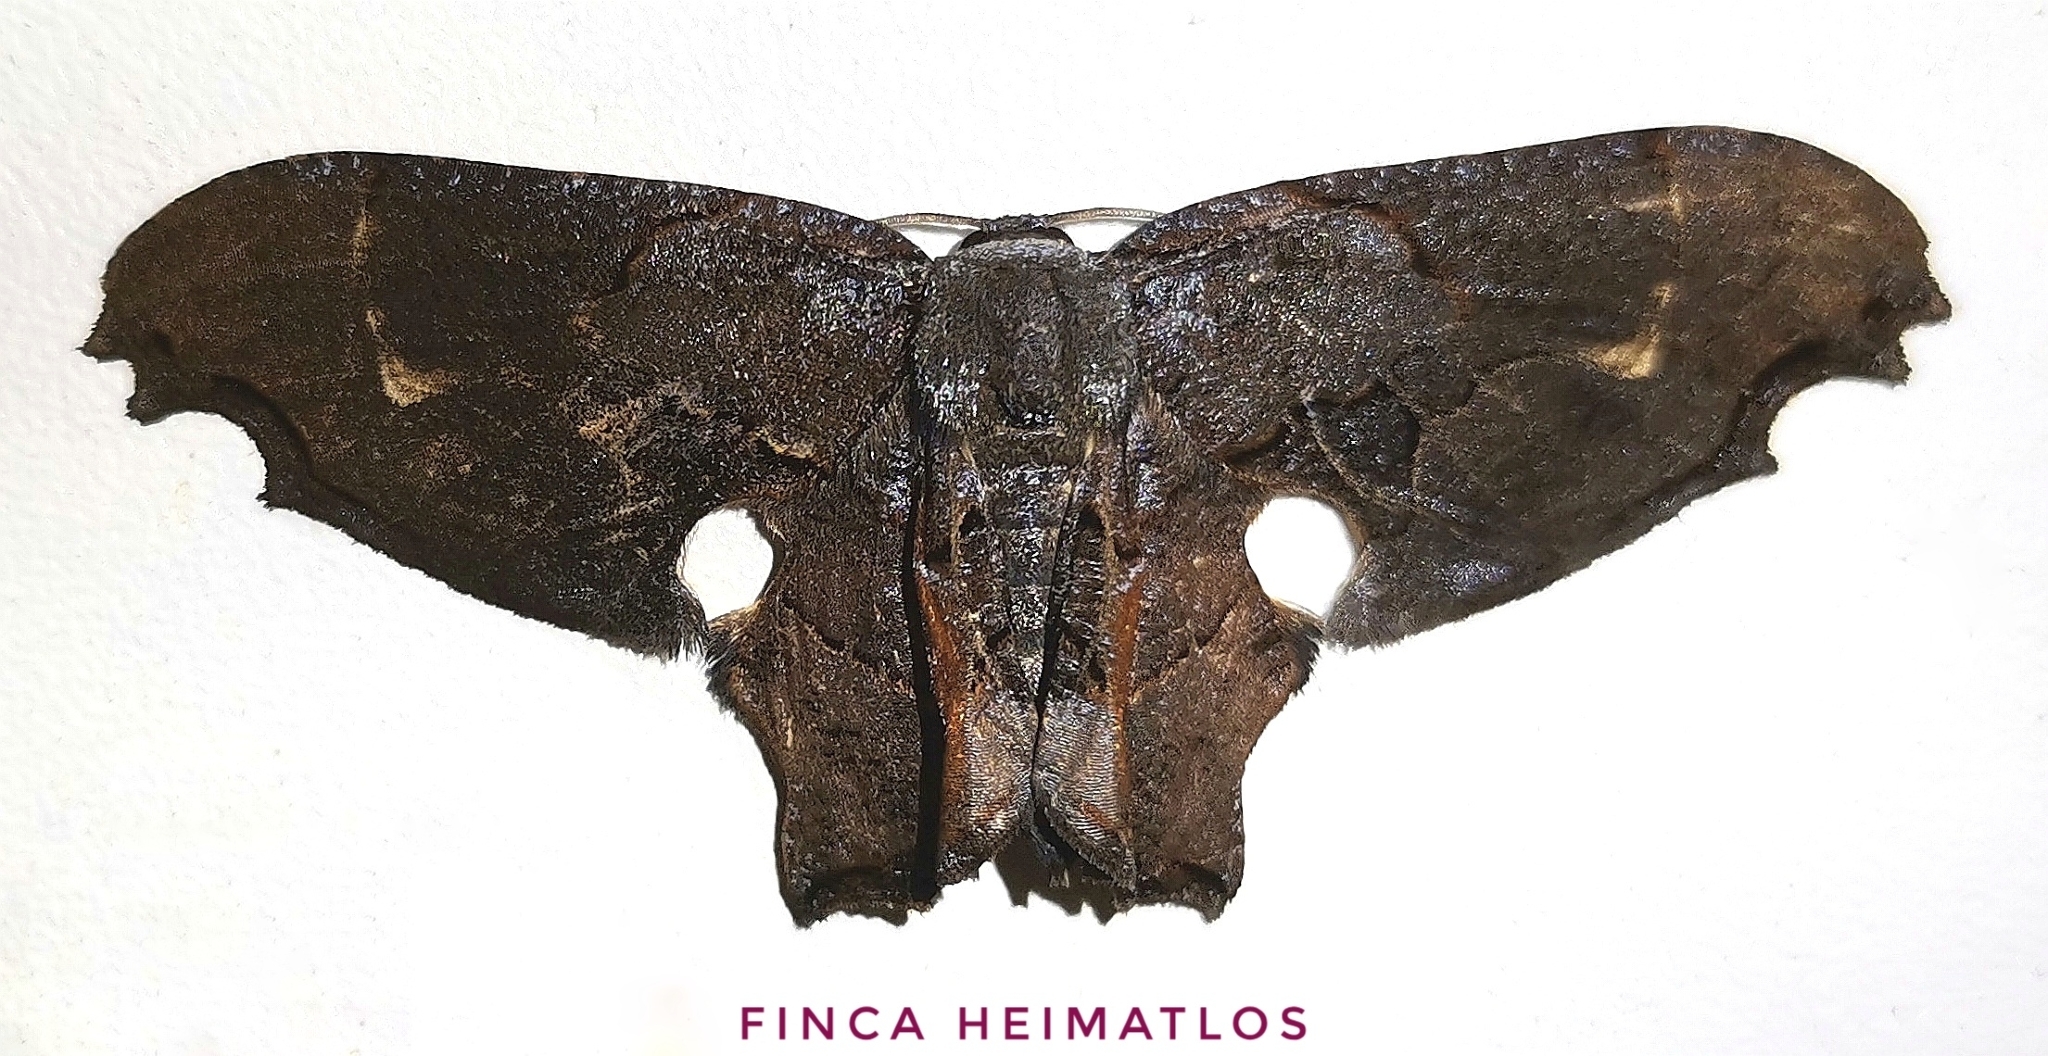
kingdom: Animalia
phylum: Arthropoda
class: Insecta
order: Lepidoptera
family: Uraniidae
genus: Epiplema
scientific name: Epiplema Erosia veninotata
